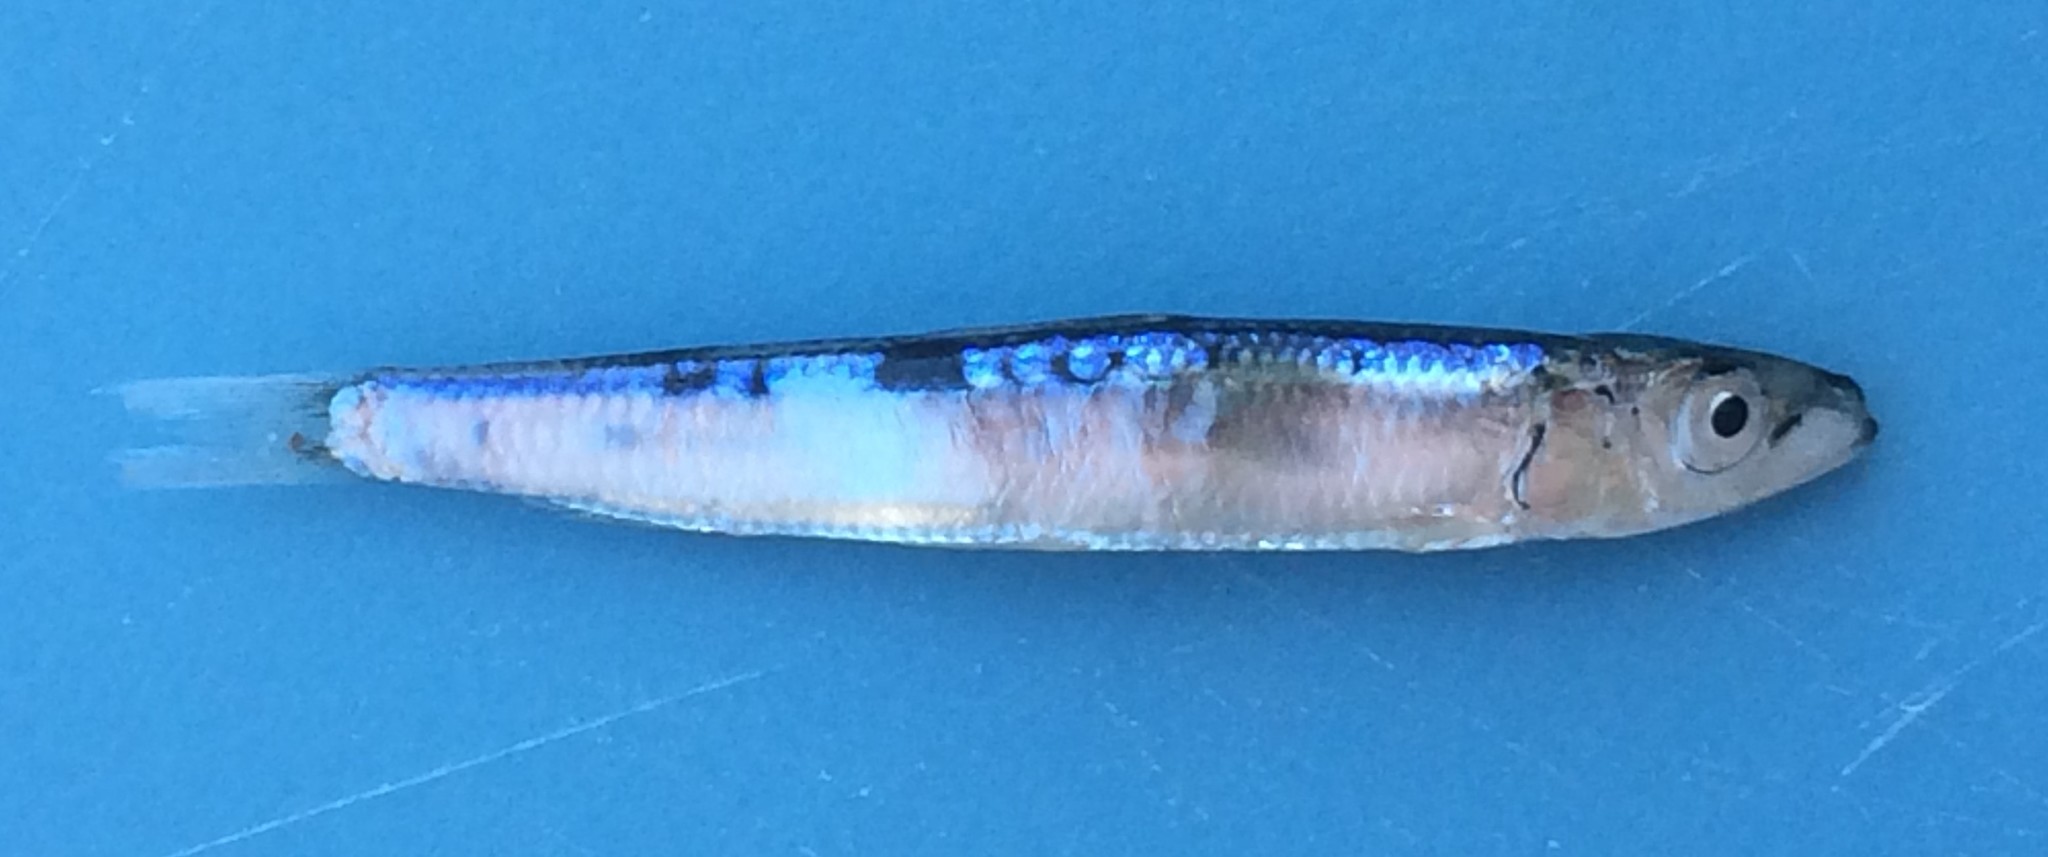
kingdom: Animalia
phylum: Chordata
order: Clupeiformes
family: Clupeidae
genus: Spratelloides
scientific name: Spratelloides robustus
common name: Fringe-scale round herring
